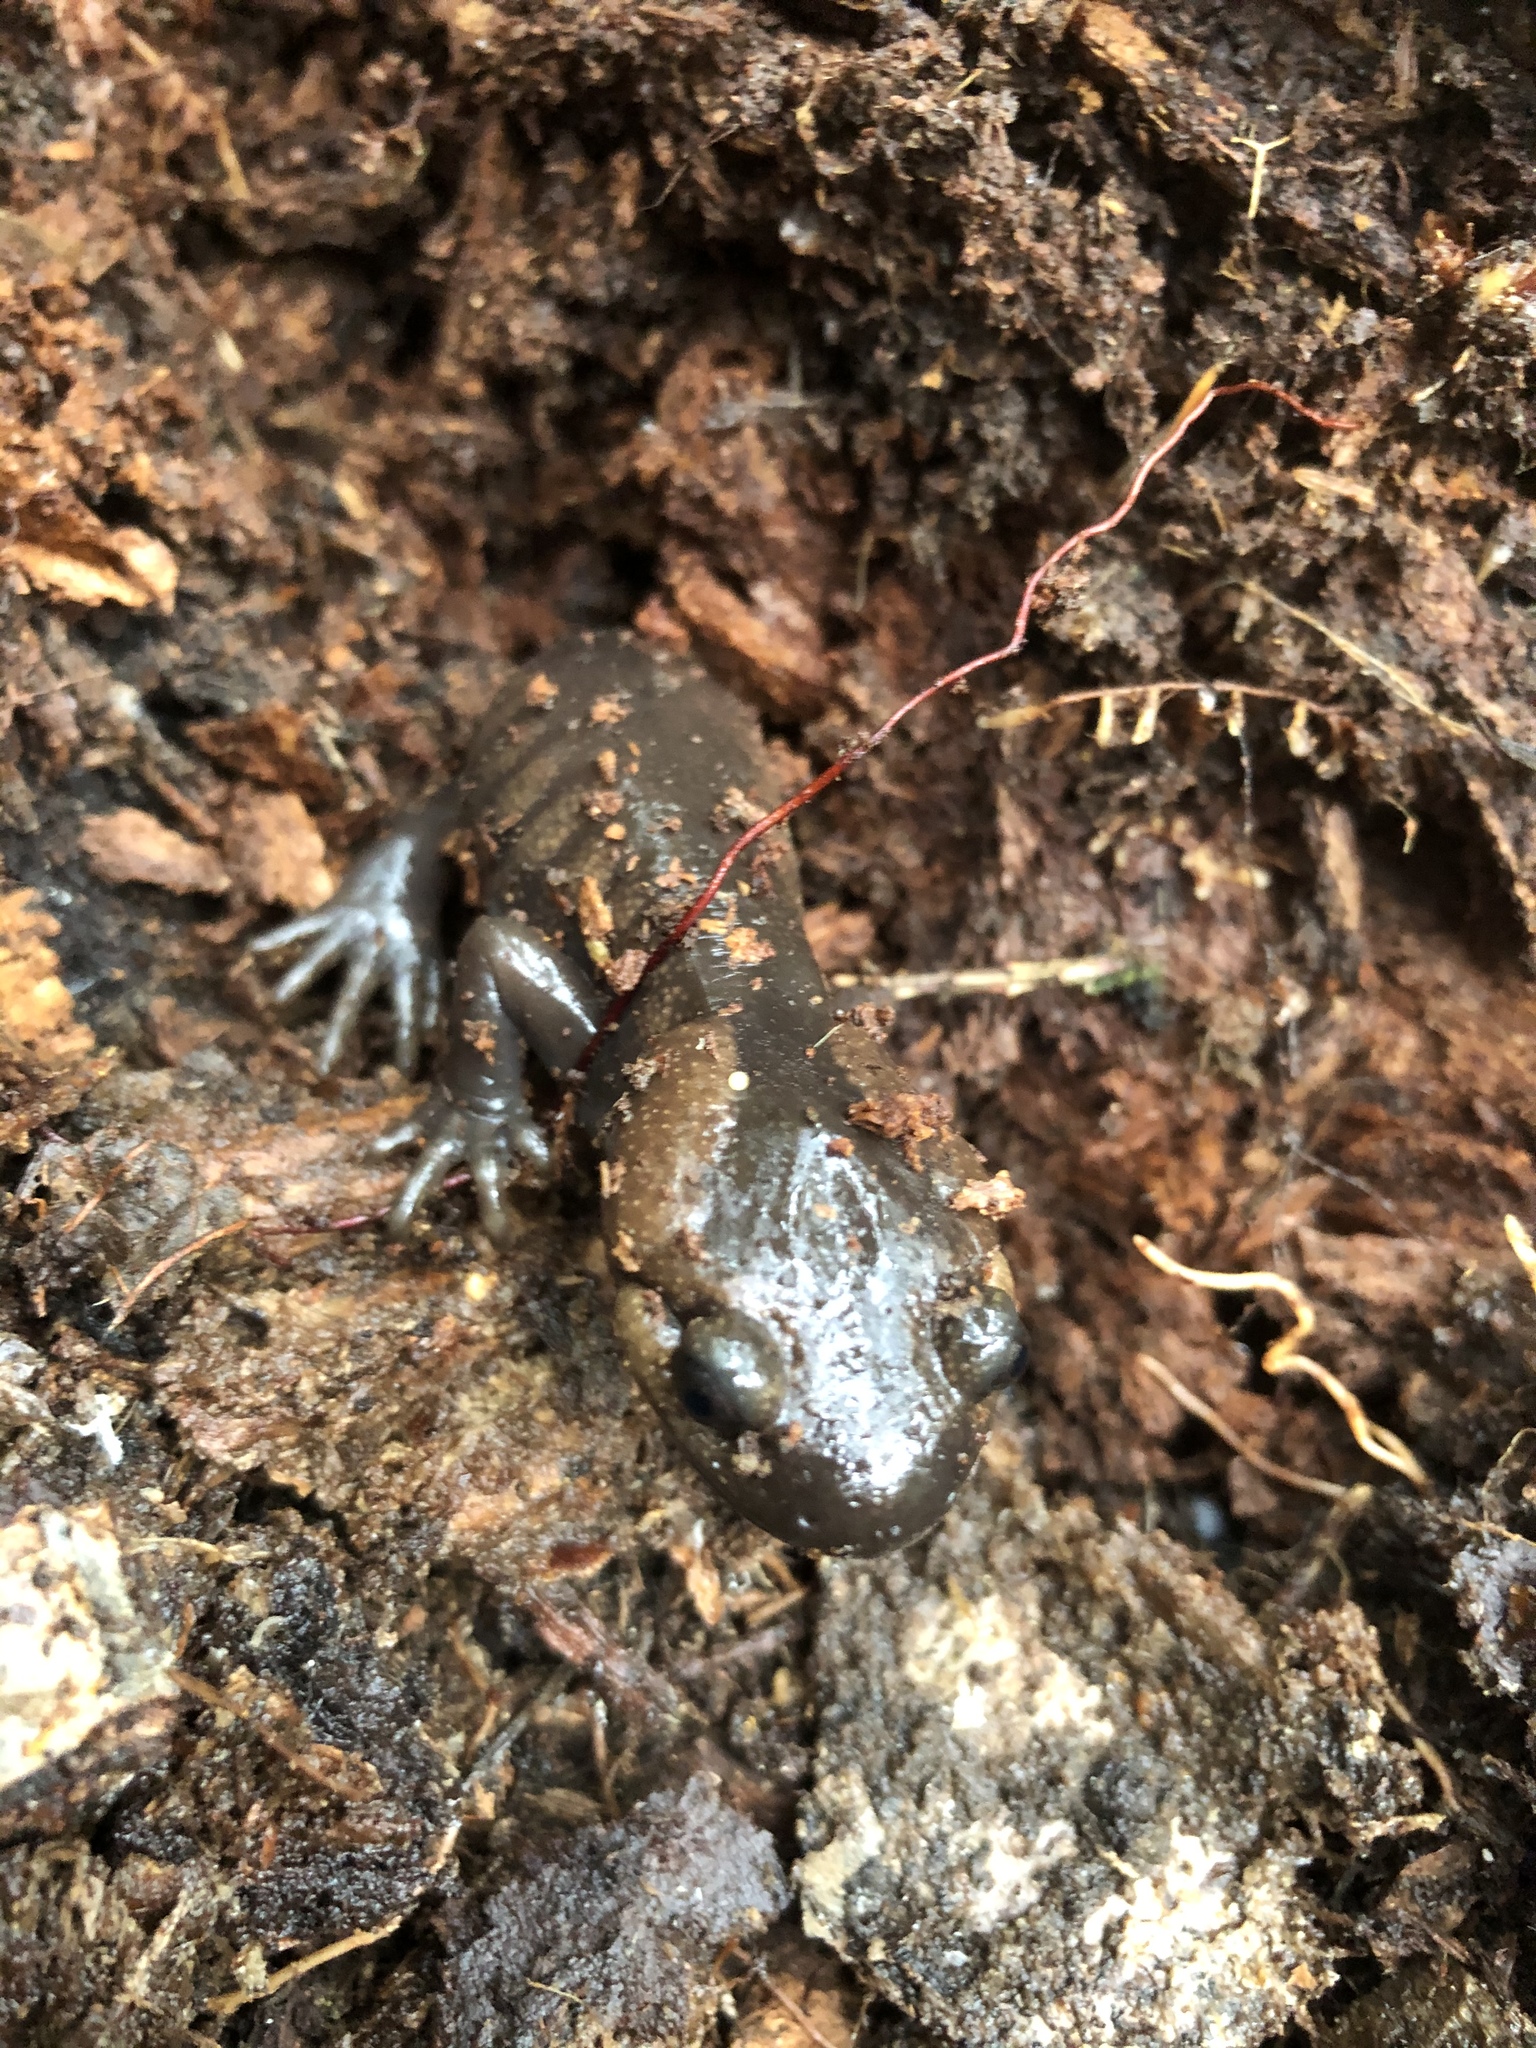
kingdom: Animalia
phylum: Chordata
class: Amphibia
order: Caudata
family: Ambystomatidae
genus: Ambystoma
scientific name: Ambystoma gracile
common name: Northwestern salamander
